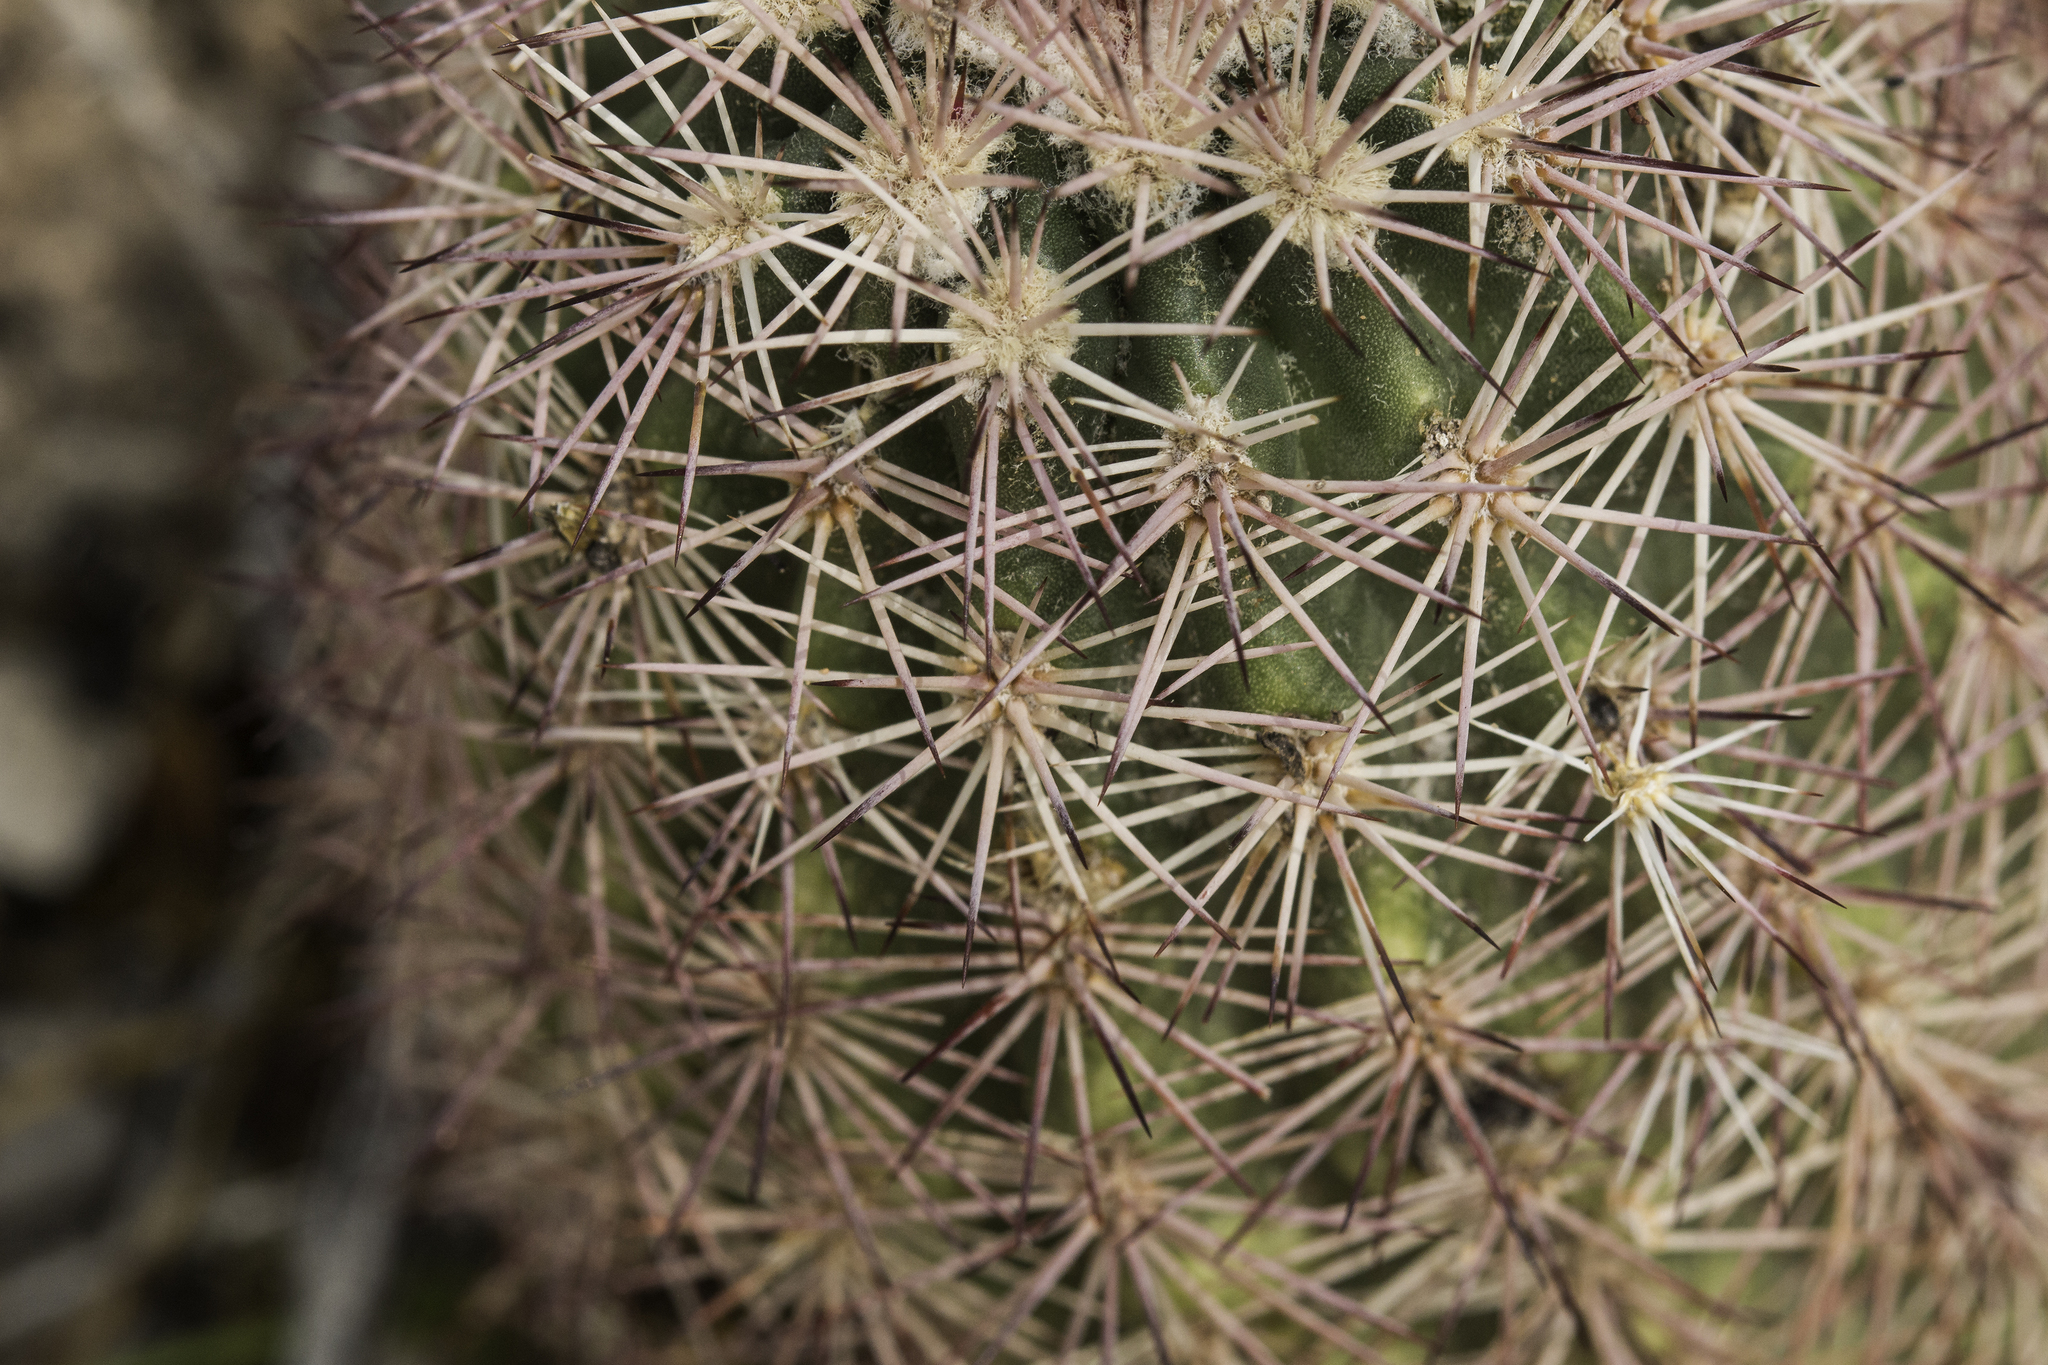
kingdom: Plantae
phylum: Tracheophyta
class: Magnoliopsida
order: Caryophyllales
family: Cactaceae
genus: Echinocereus
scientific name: Echinocereus dasyacanthus
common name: Spiny hedgehog cactus
